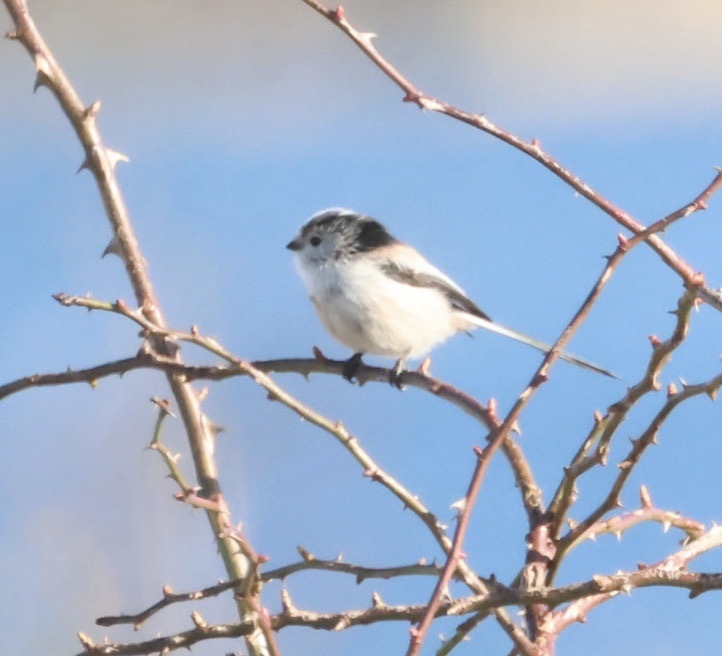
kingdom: Animalia
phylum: Chordata
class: Aves
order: Passeriformes
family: Aegithalidae
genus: Aegithalos
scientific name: Aegithalos caudatus
